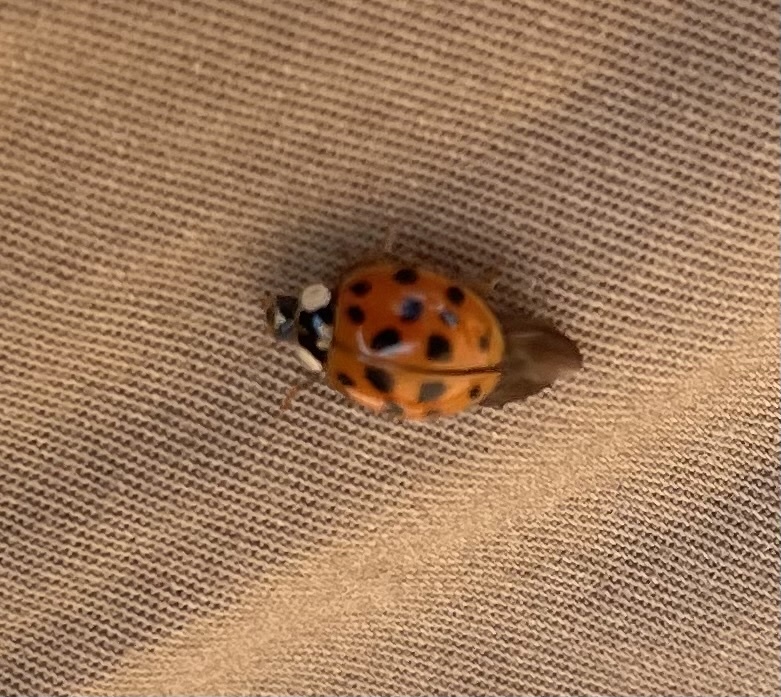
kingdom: Animalia
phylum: Arthropoda
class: Insecta
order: Coleoptera
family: Coccinellidae
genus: Harmonia
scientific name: Harmonia axyridis
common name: Harlequin ladybird
